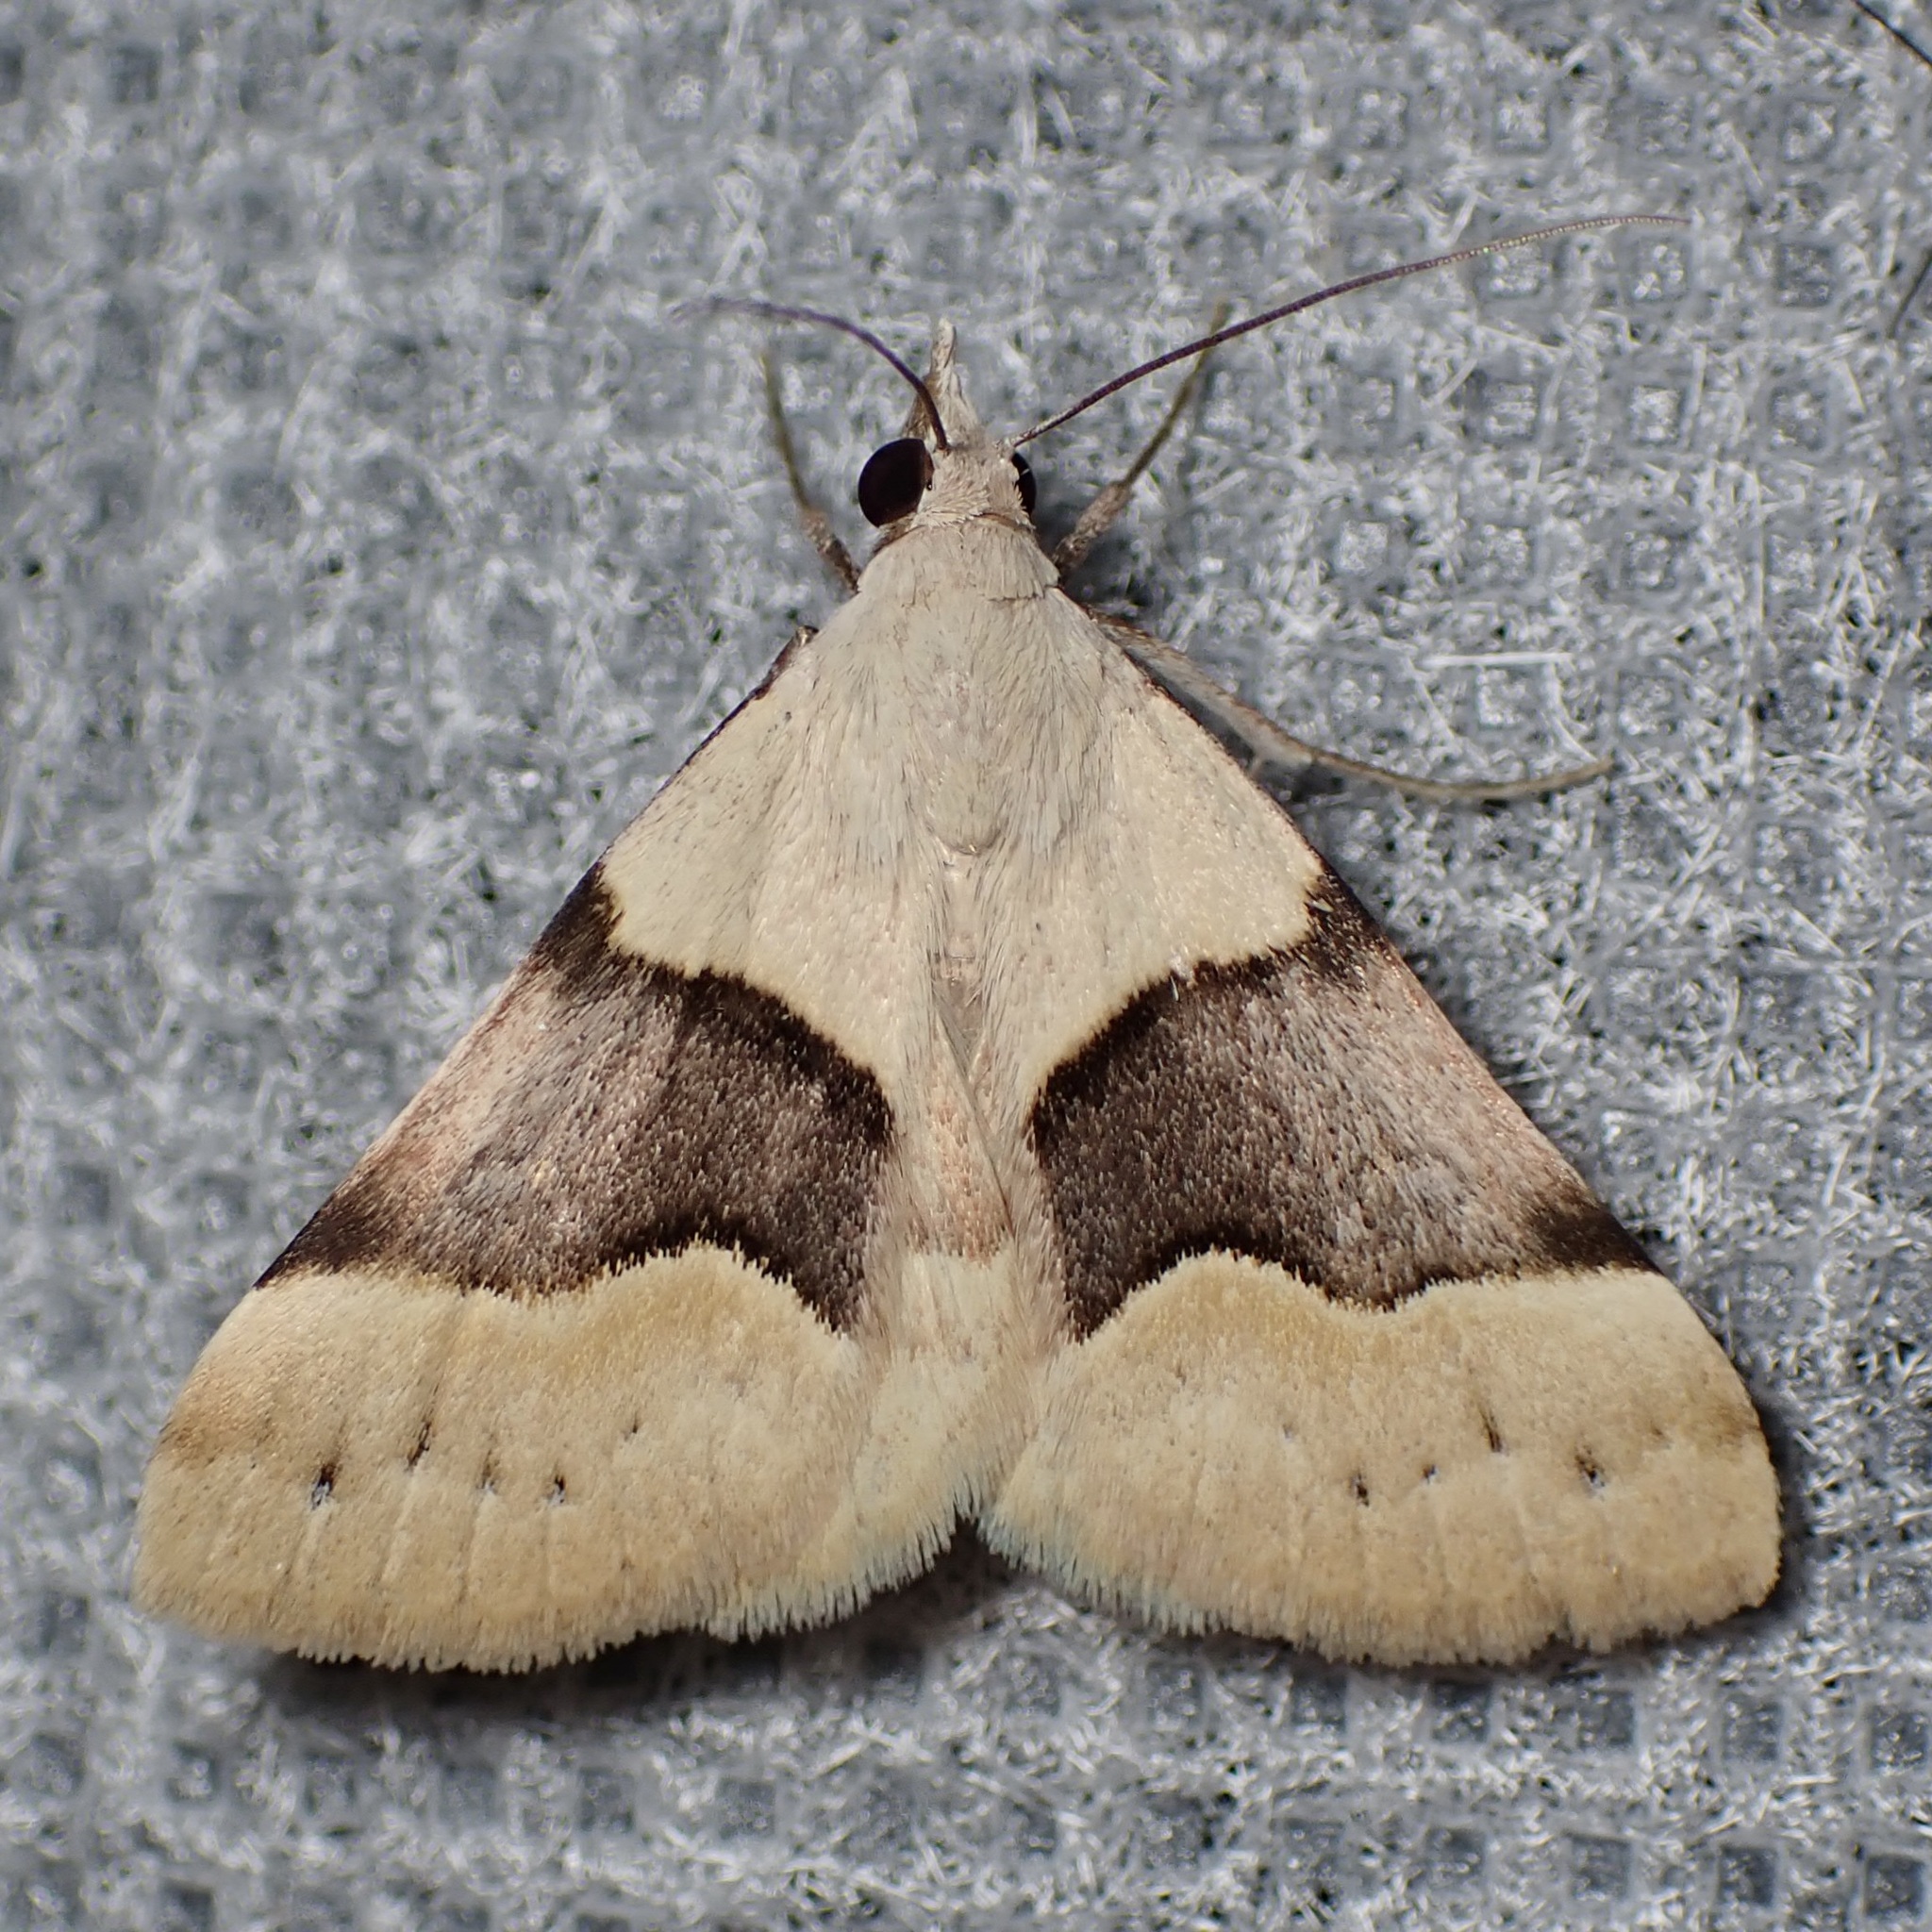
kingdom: Animalia
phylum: Arthropoda
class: Insecta
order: Lepidoptera
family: Erebidae
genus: Hemeroplanis
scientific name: Hemeroplanis incusalis
